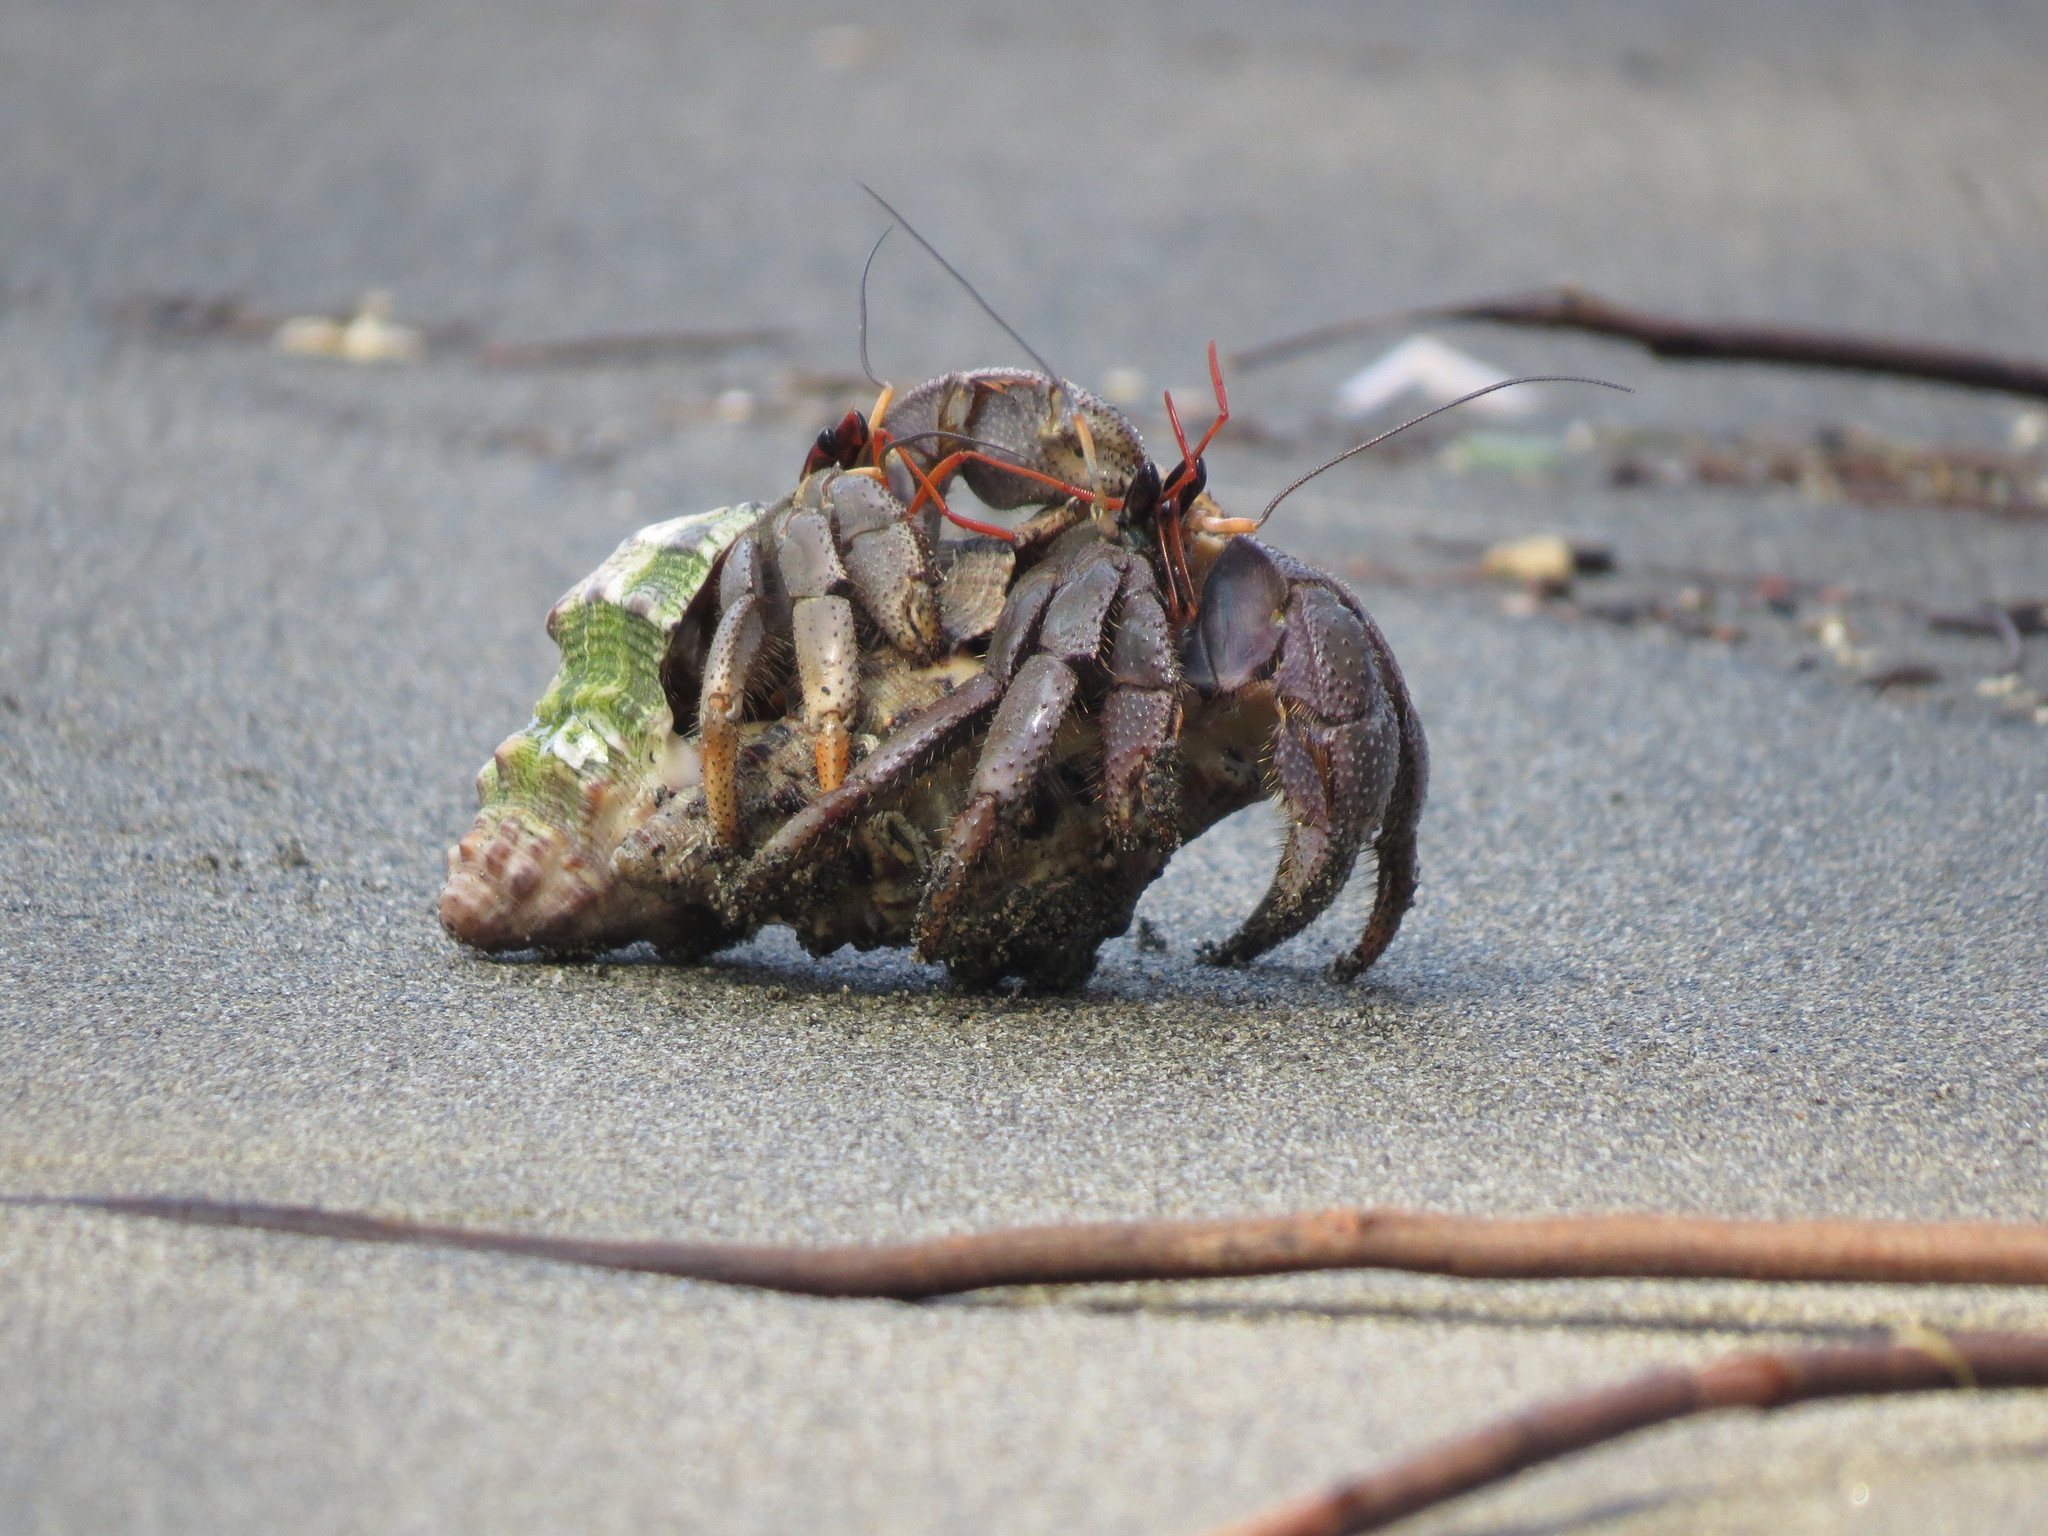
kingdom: Animalia
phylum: Arthropoda
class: Malacostraca
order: Decapoda
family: Coenobitidae
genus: Coenobita
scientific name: Coenobita violascens
